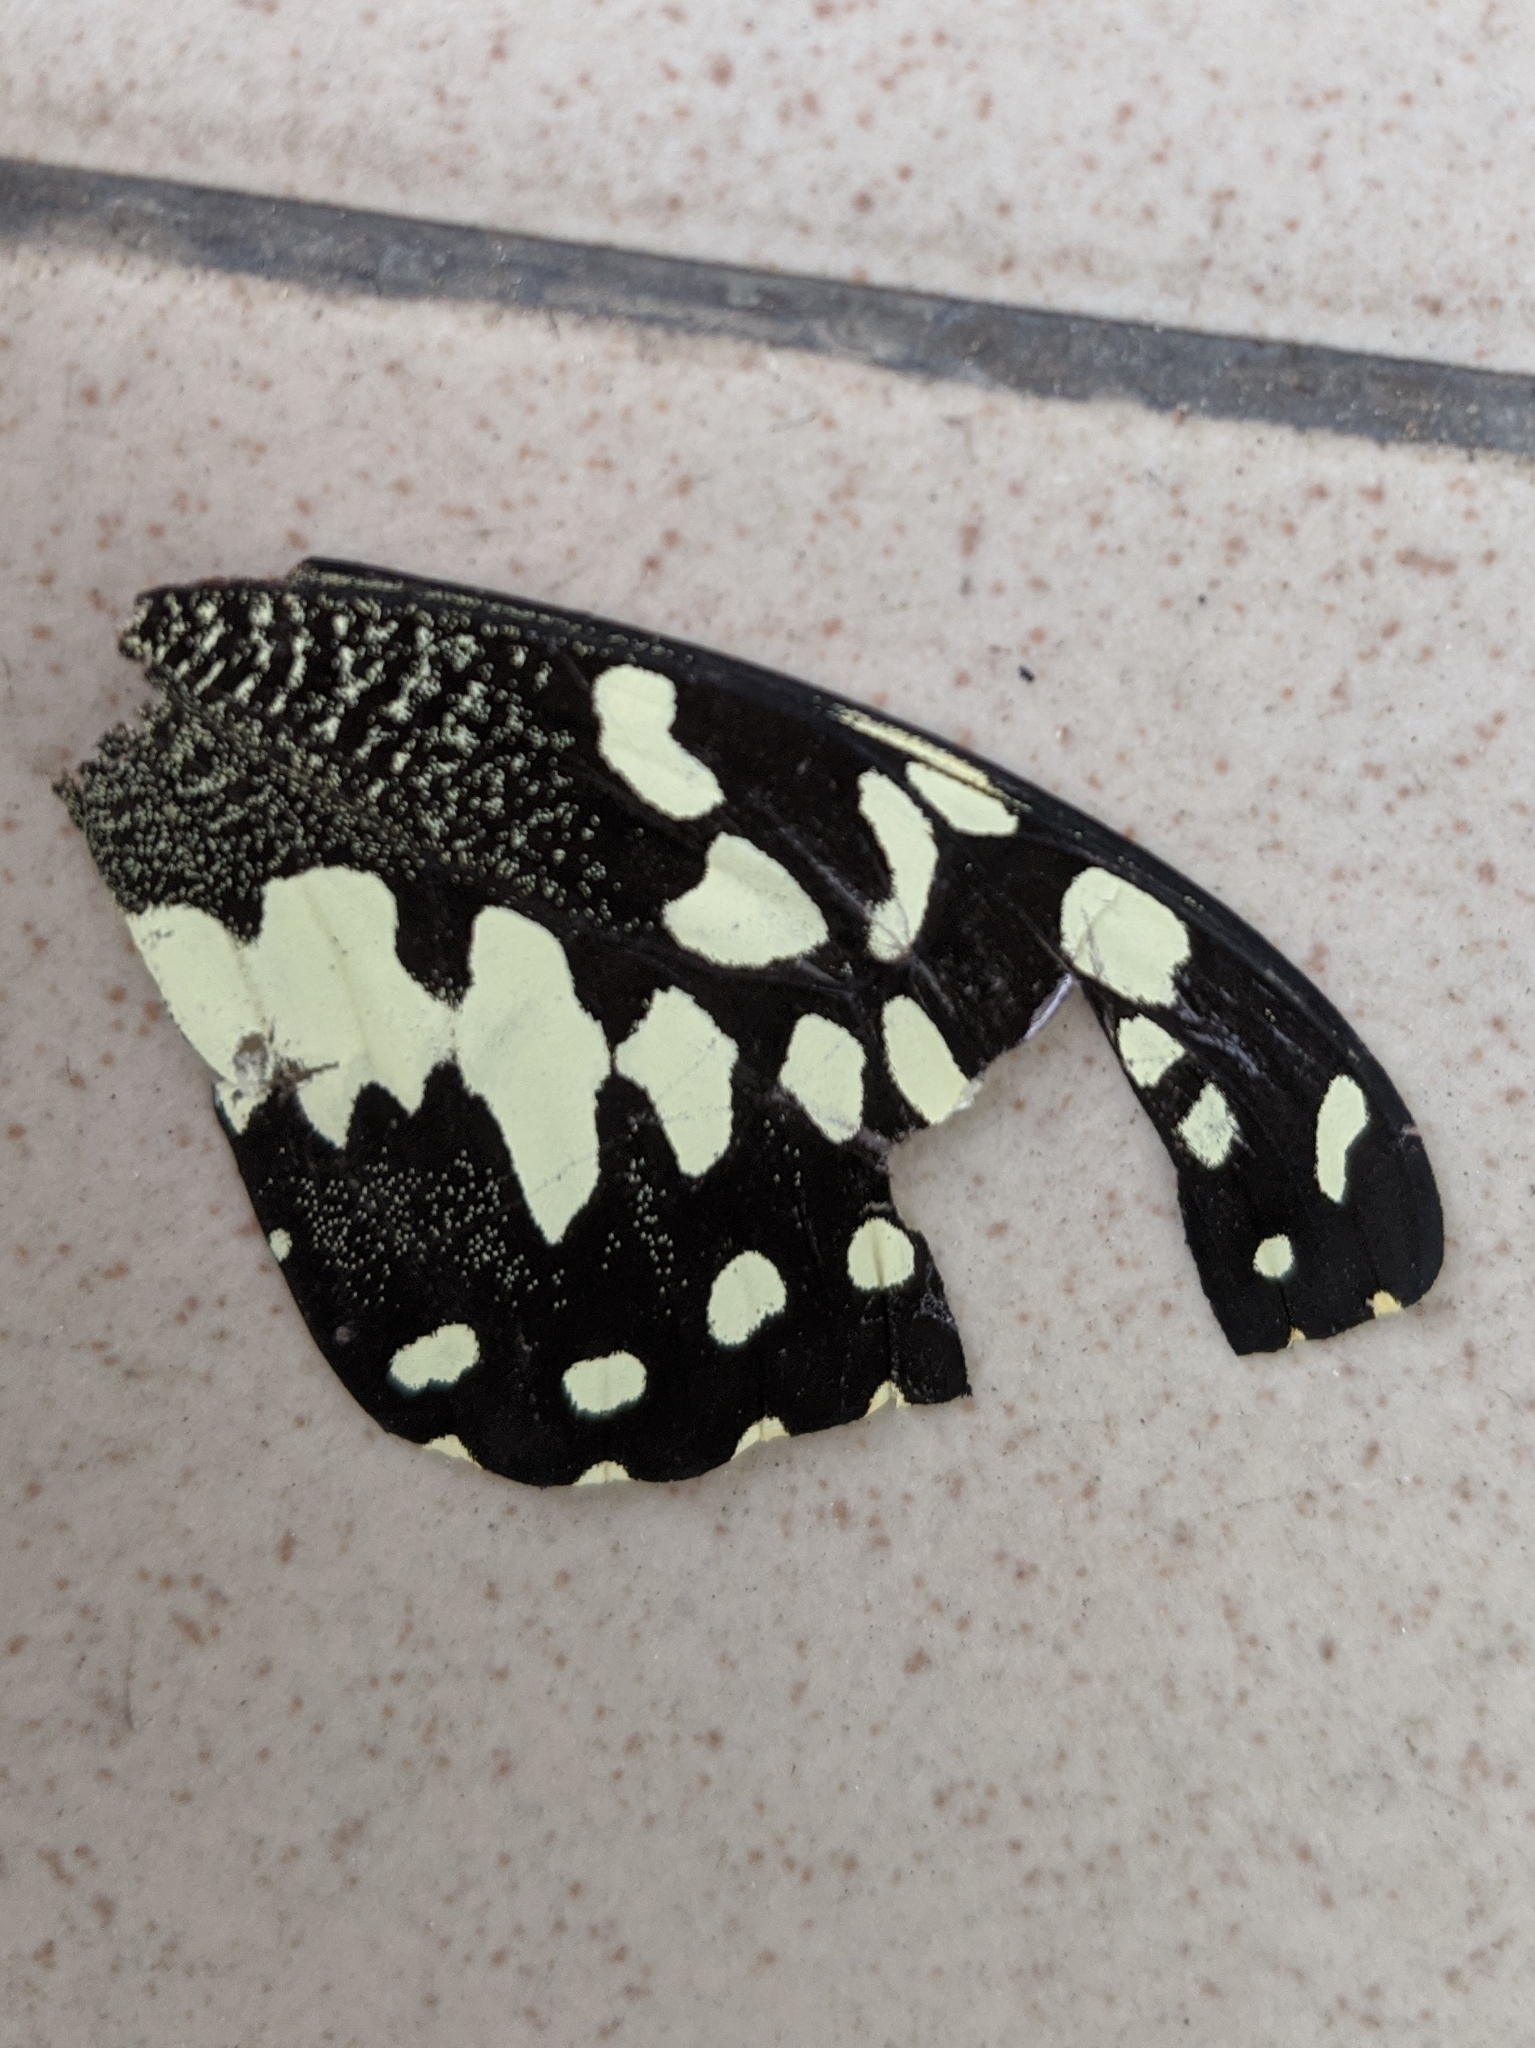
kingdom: Animalia
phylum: Arthropoda
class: Insecta
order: Lepidoptera
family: Papilionidae
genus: Papilio
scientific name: Papilio demodocus
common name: Christmas butterfly
